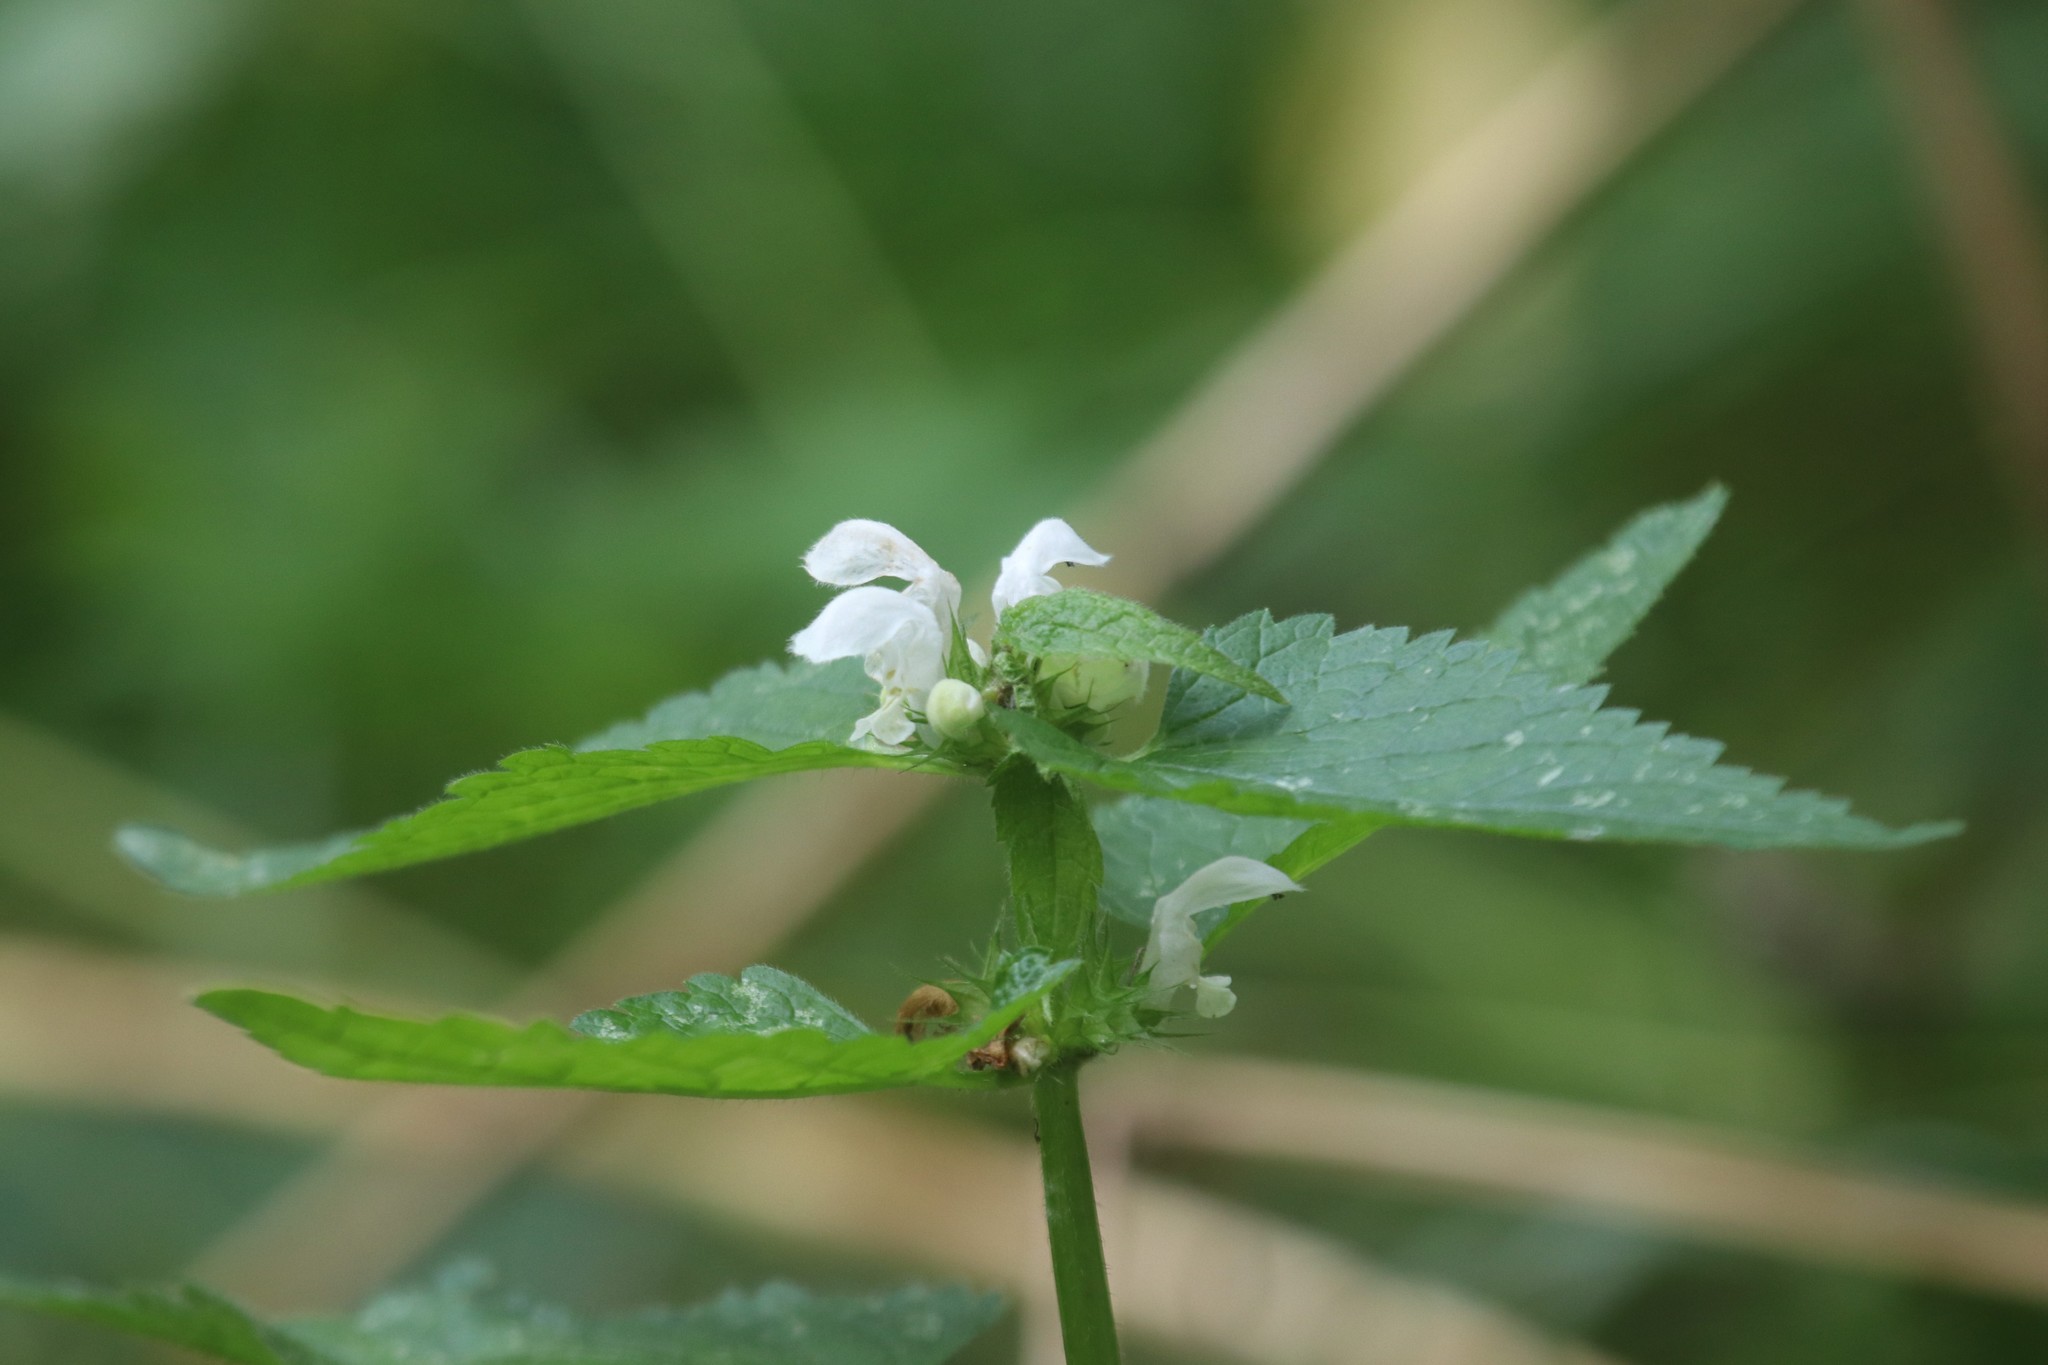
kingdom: Plantae
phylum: Tracheophyta
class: Magnoliopsida
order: Lamiales
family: Lamiaceae
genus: Lamium
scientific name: Lamium album
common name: White dead-nettle
